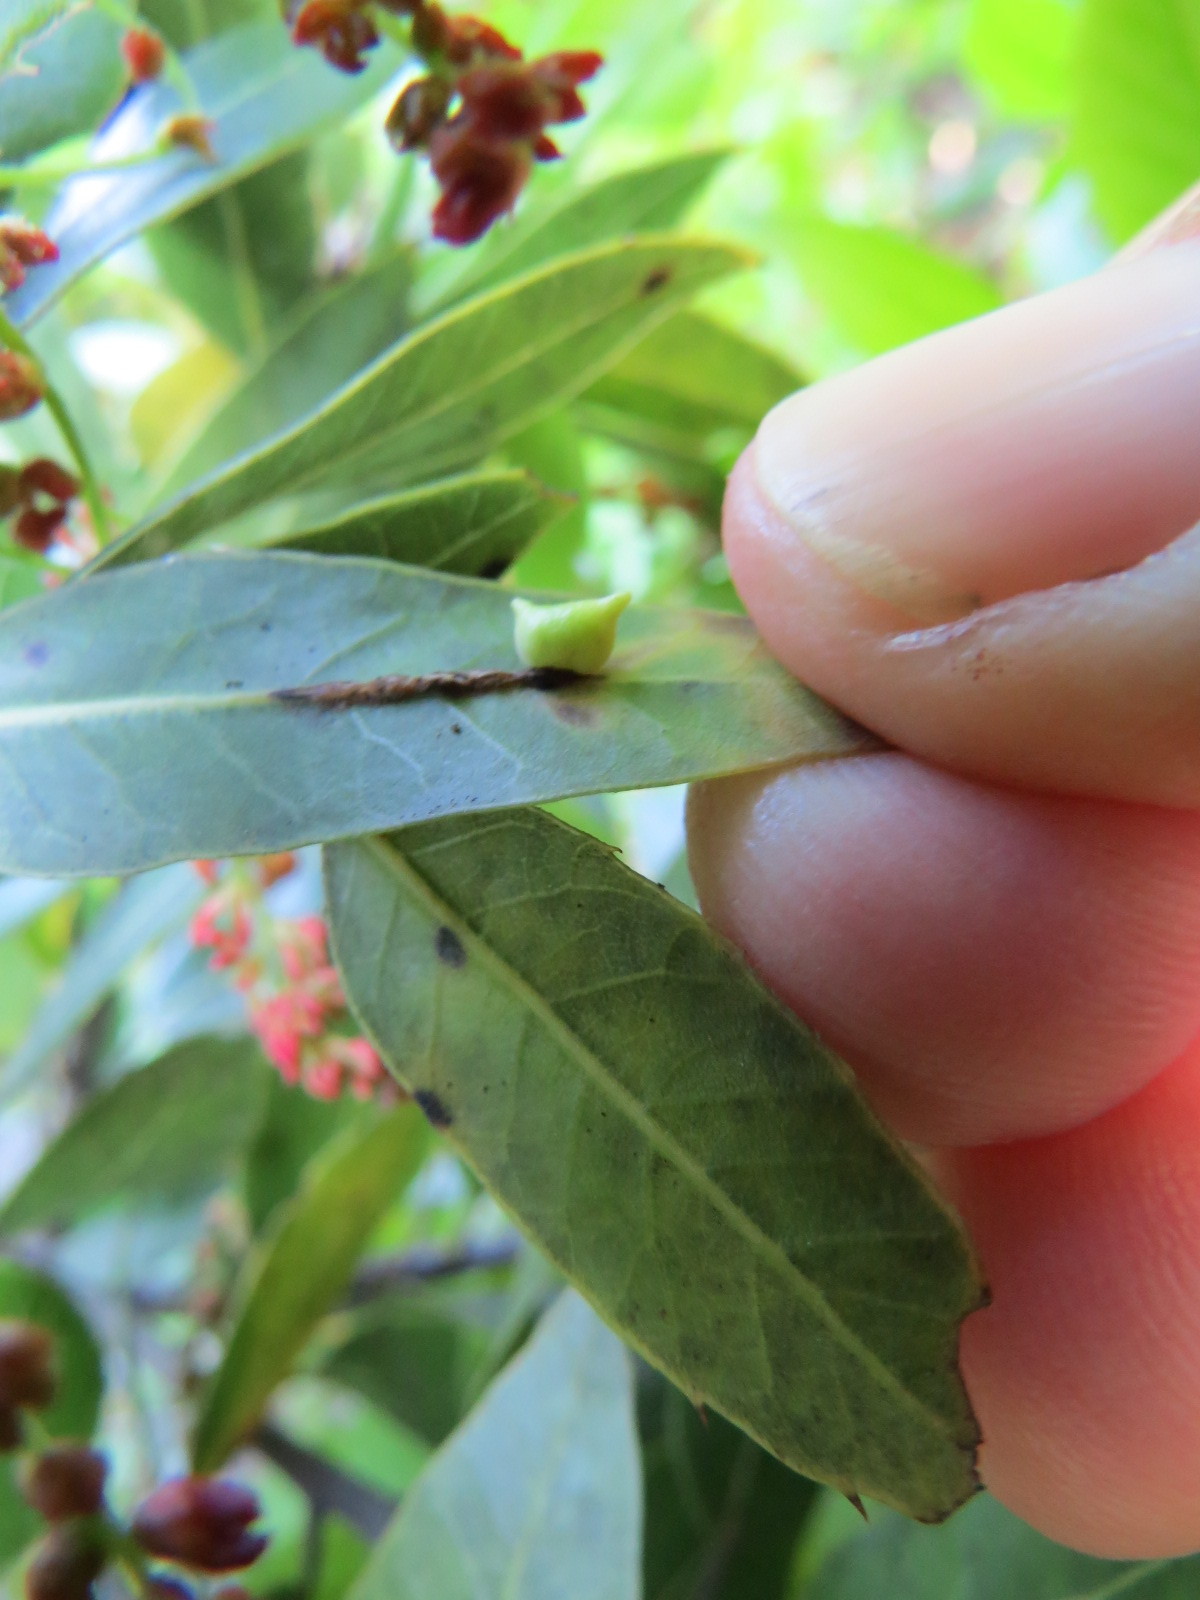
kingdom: Animalia
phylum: Arthropoda
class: Insecta
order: Hymenoptera
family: Cynipidae
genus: Dryocosmus
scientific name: Dryocosmus
